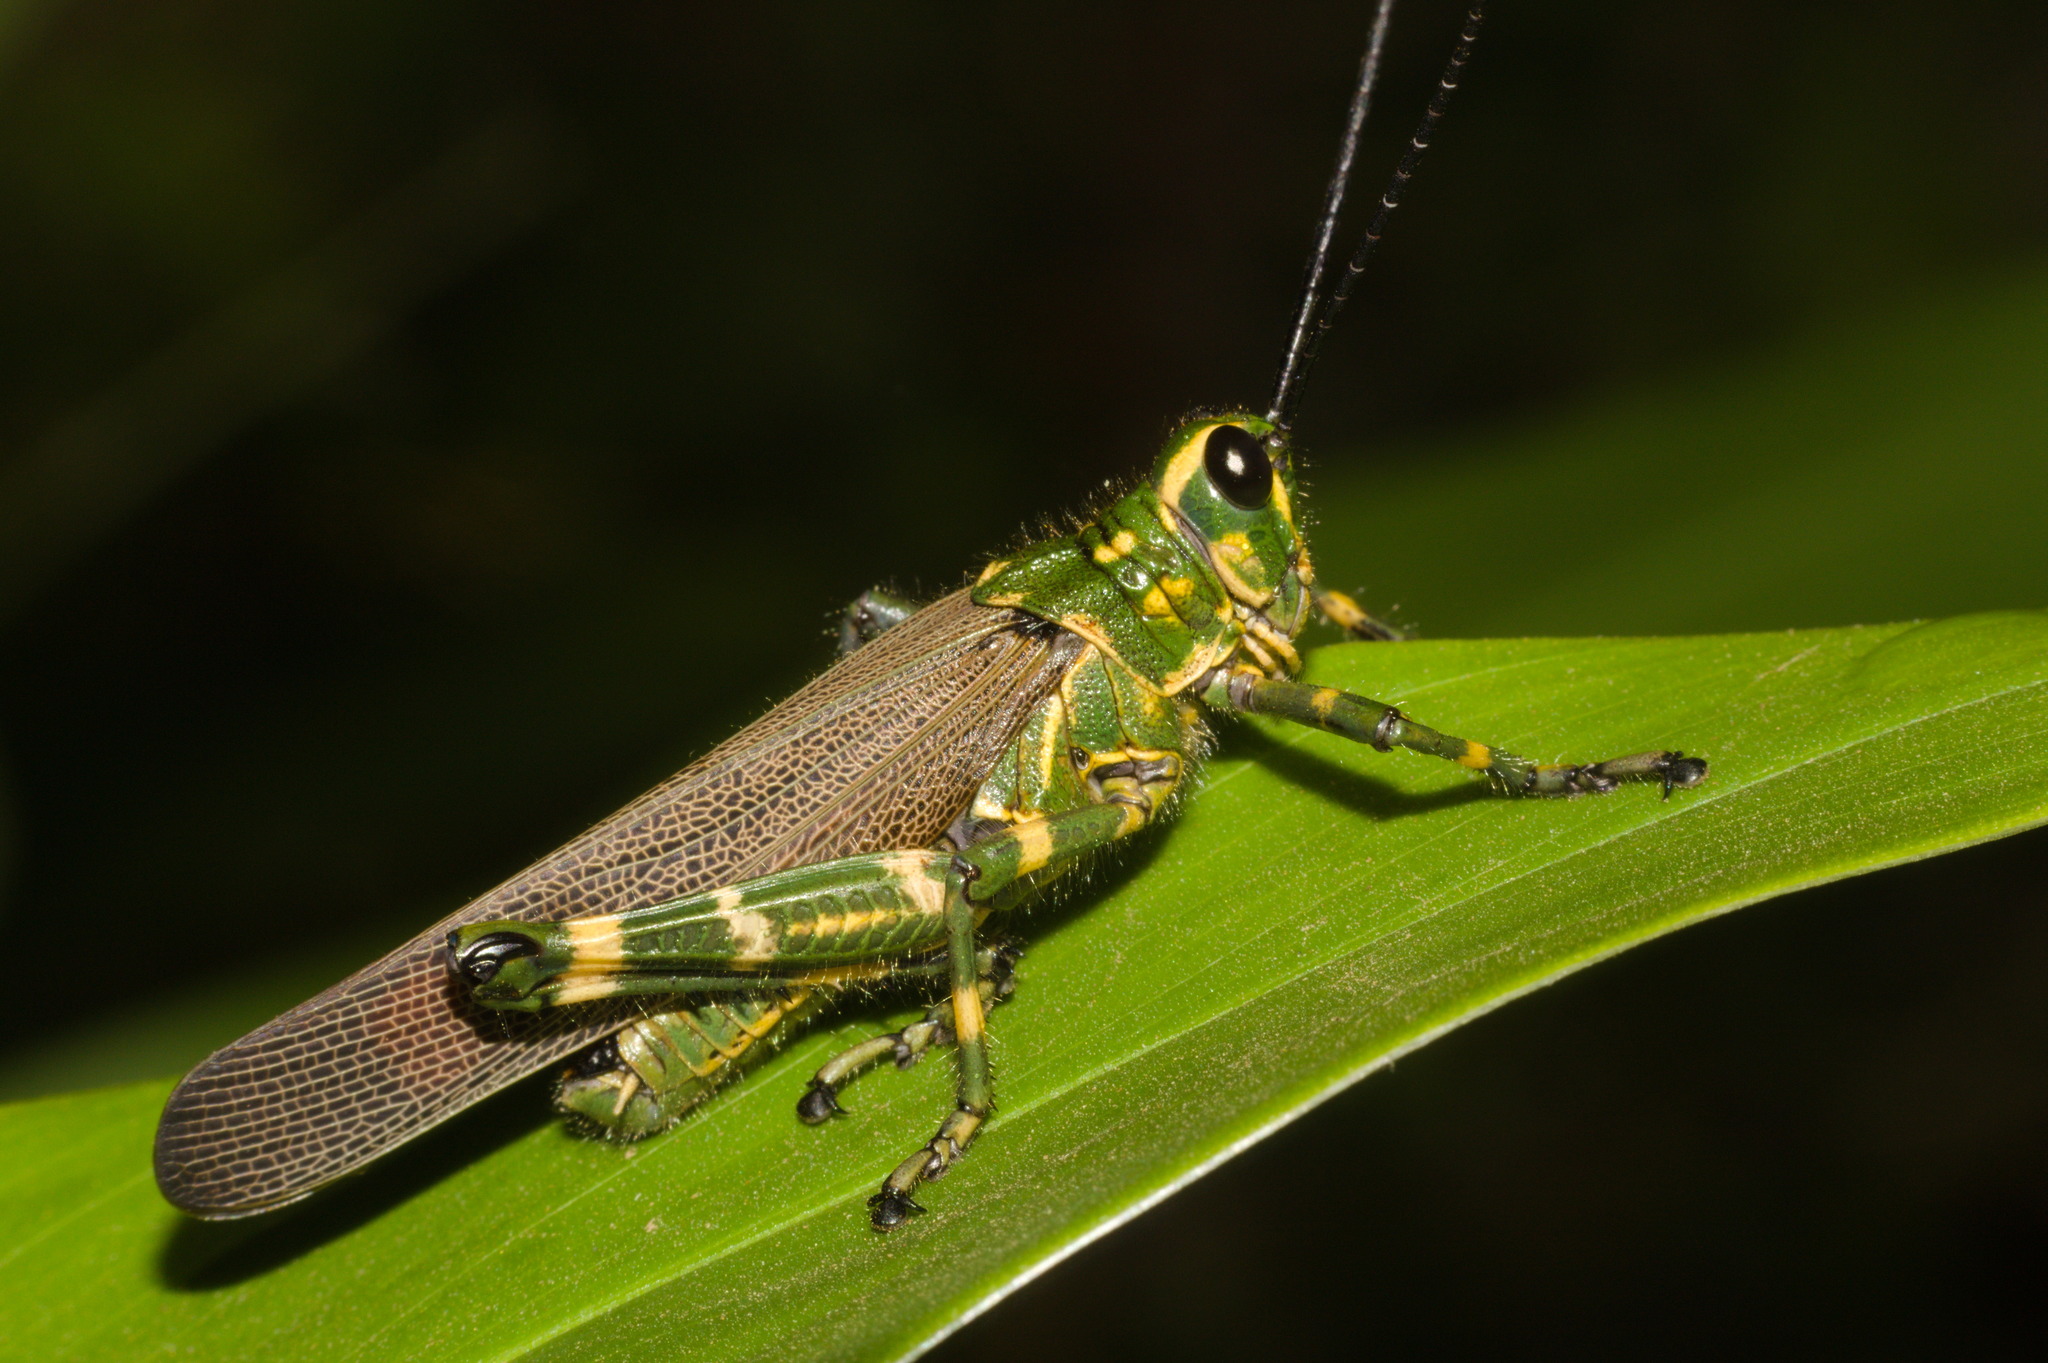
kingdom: Animalia
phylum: Arthropoda
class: Insecta
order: Orthoptera
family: Romaleidae
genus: Chromacris
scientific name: Chromacris speciosa
